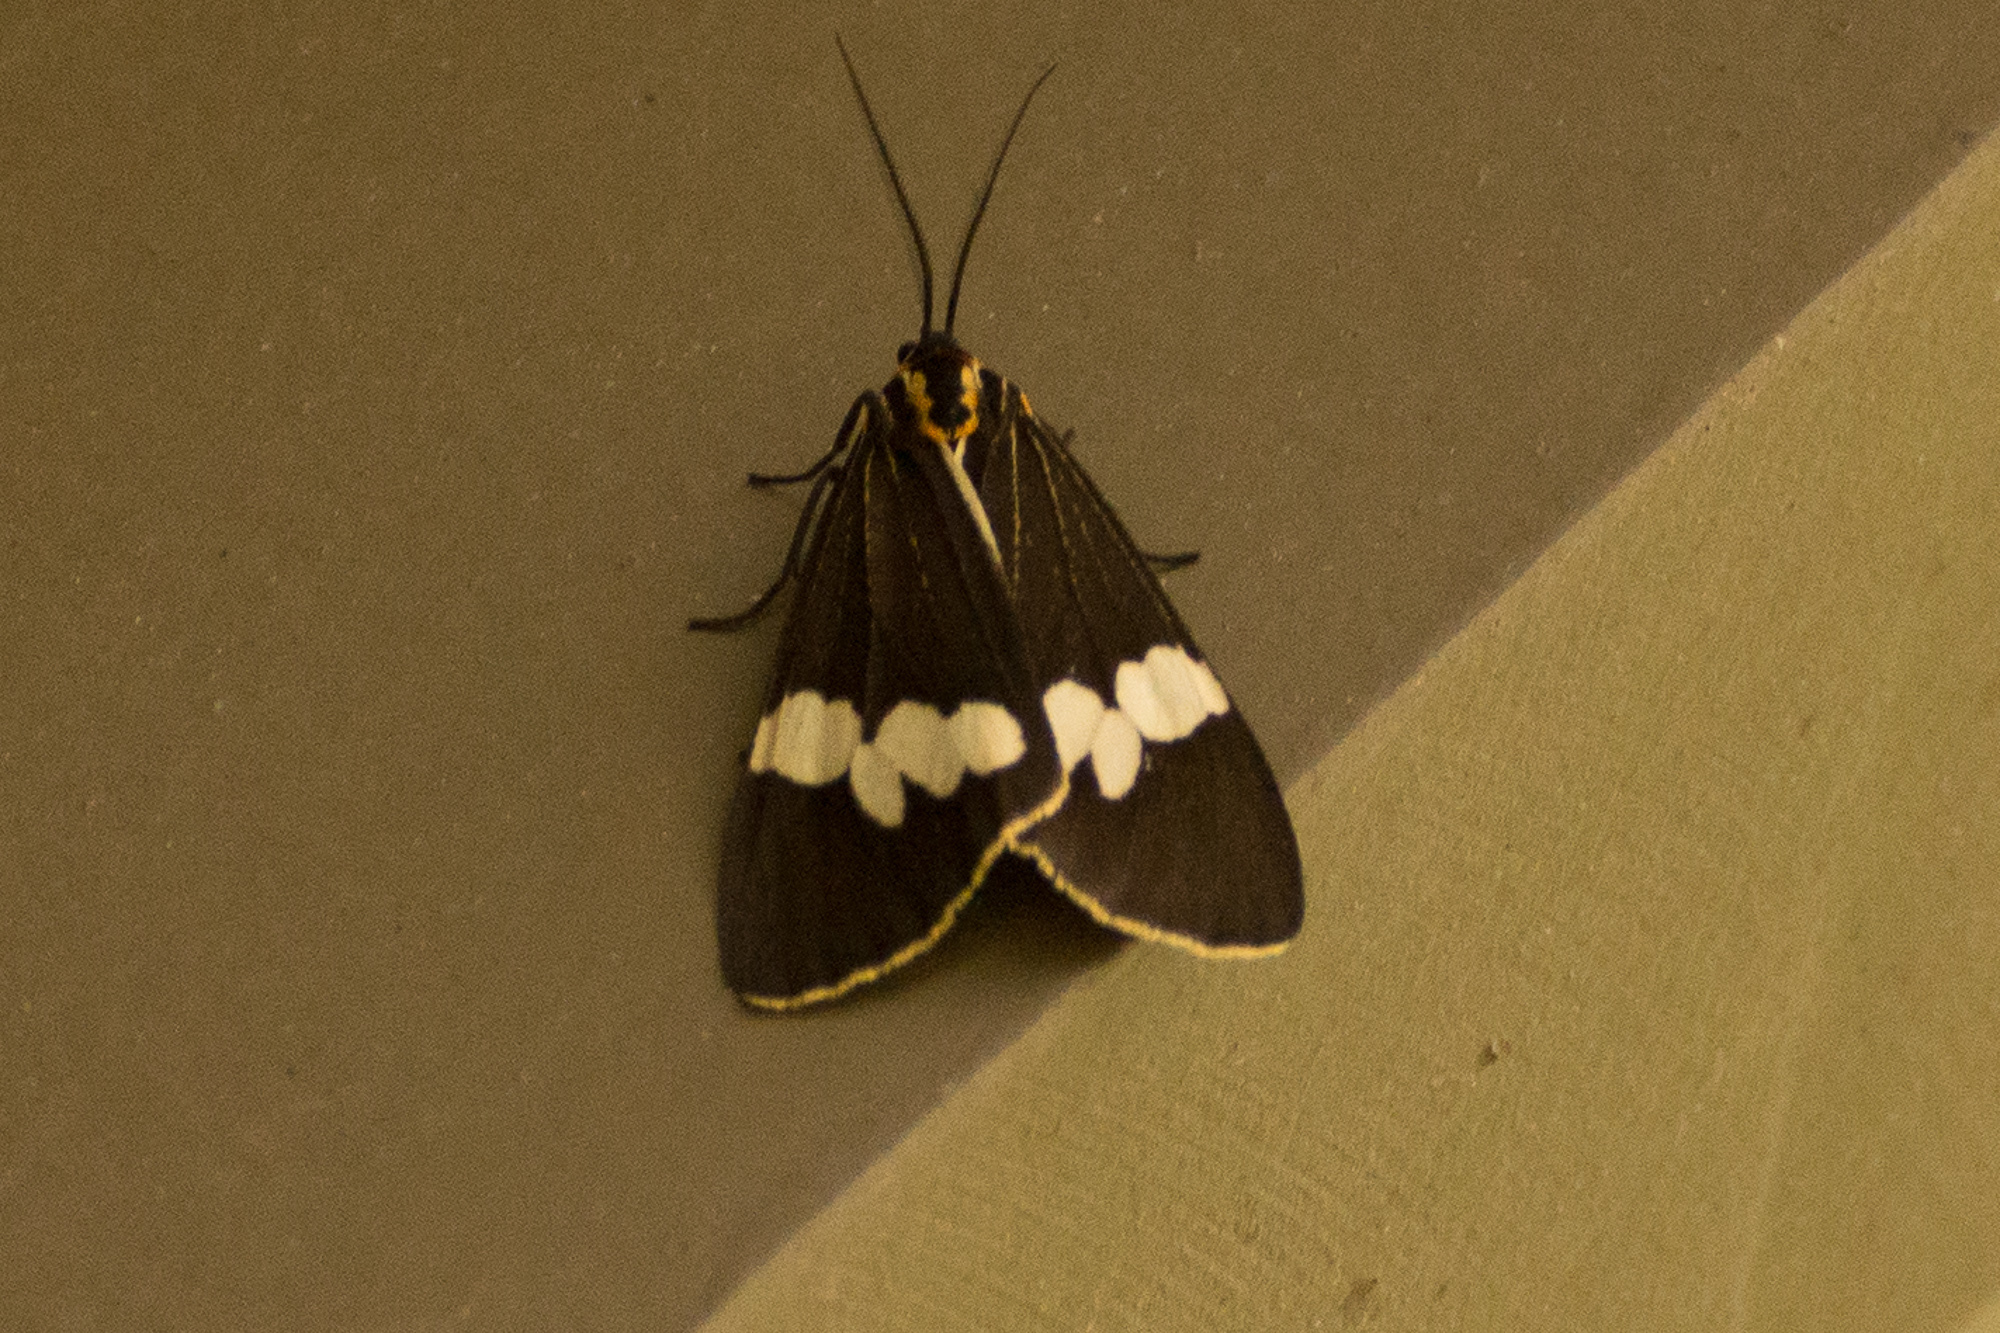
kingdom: Animalia
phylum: Arthropoda
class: Insecta
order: Lepidoptera
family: Erebidae
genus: Nyctemera
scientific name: Nyctemera amicus
